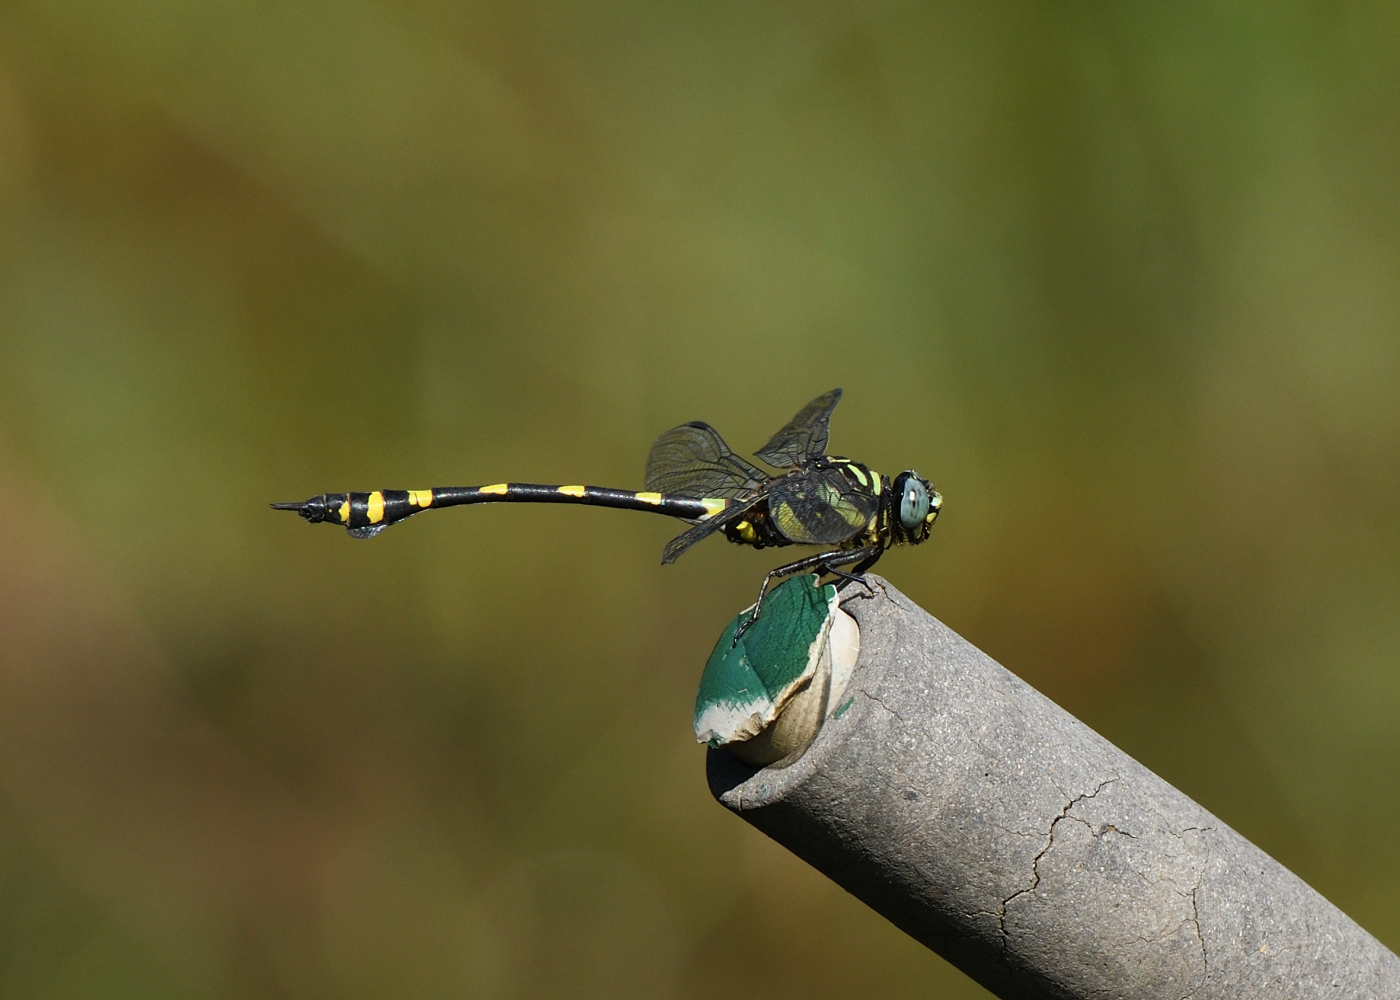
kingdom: Animalia
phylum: Arthropoda
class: Insecta
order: Odonata
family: Gomphidae
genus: Ictinogomphus
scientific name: Ictinogomphus rapax
